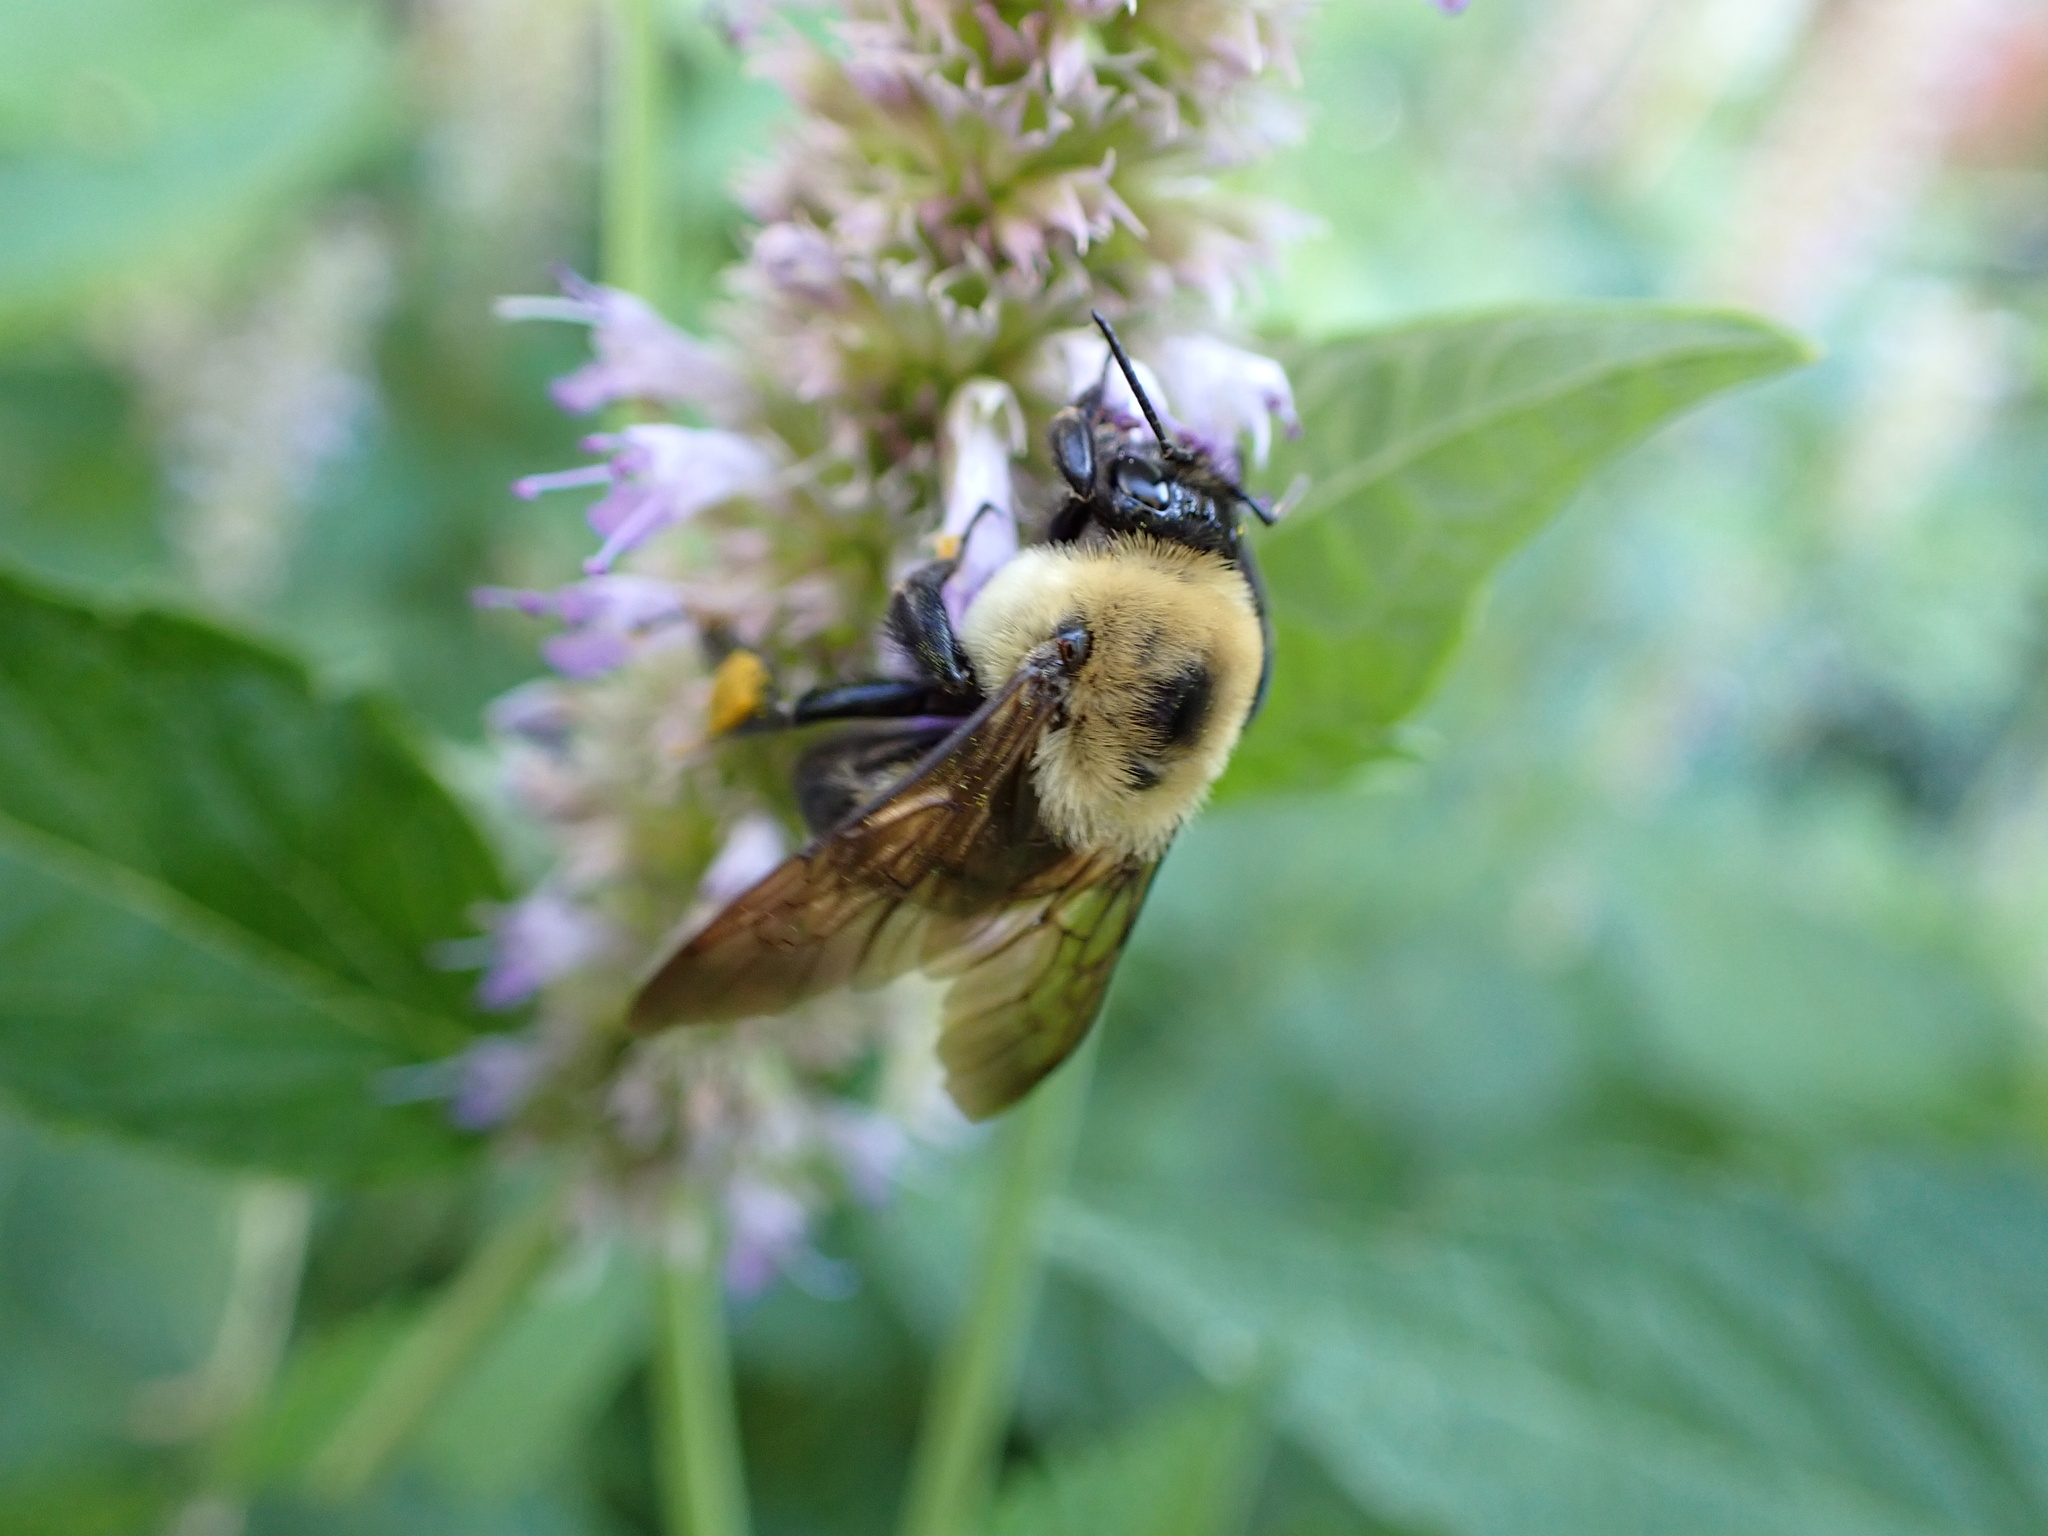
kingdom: Animalia
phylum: Arthropoda
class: Insecta
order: Hymenoptera
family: Apidae
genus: Bombus
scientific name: Bombus griseocollis
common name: Brown-belted bumble bee
